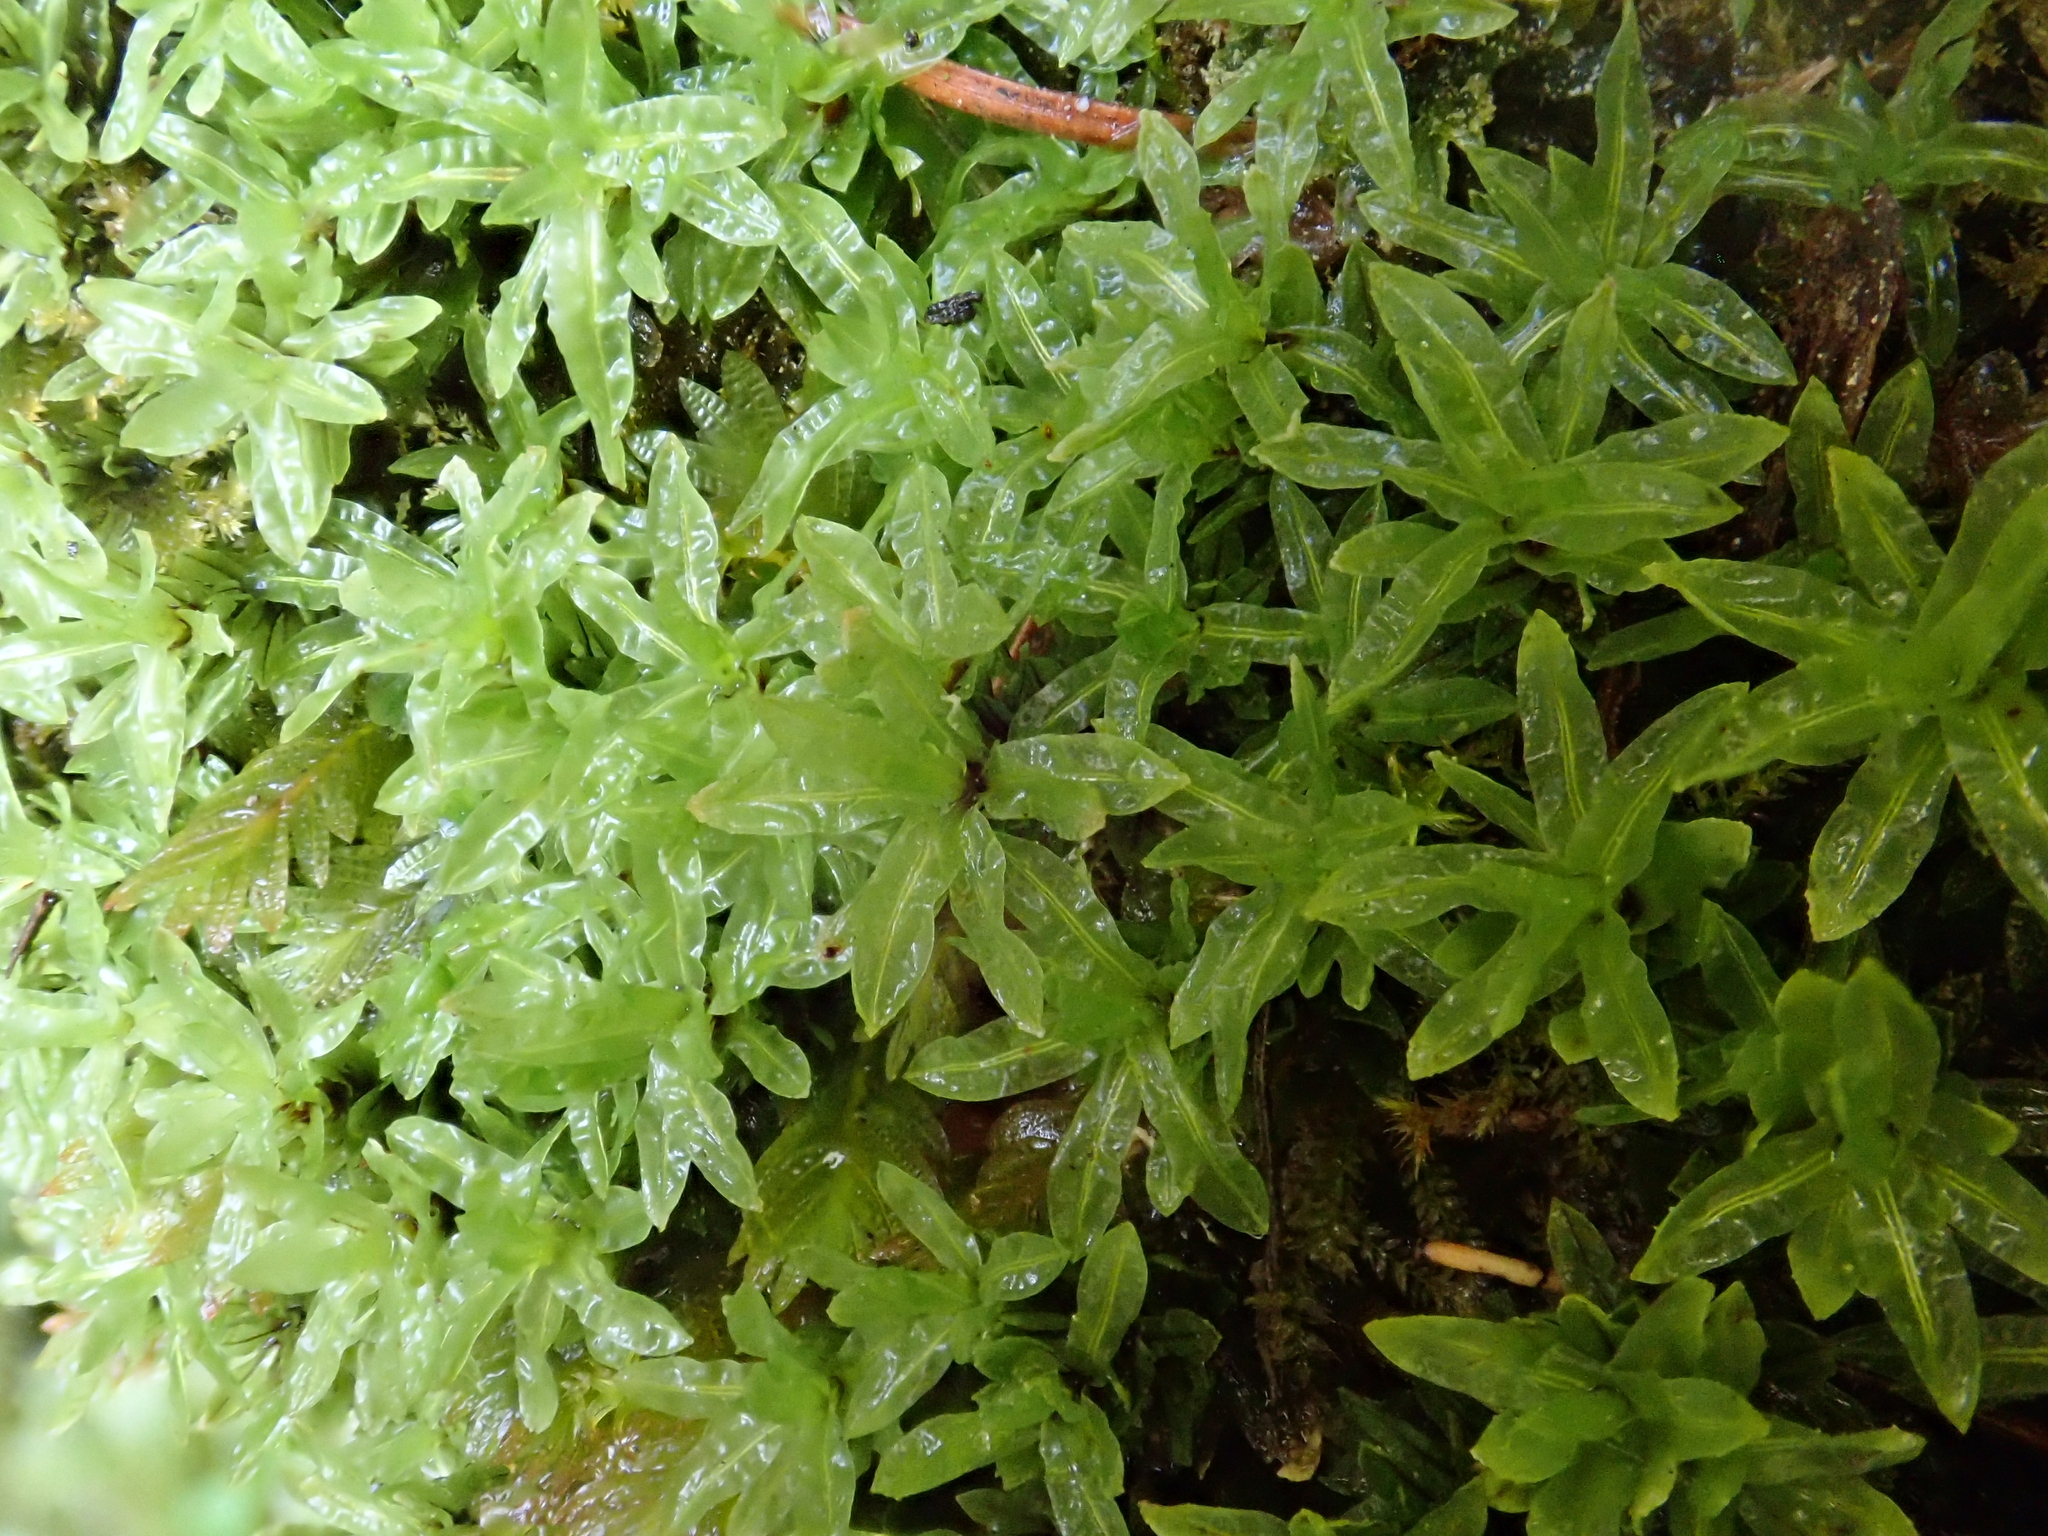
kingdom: Plantae
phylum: Bryophyta
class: Bryopsida
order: Encalyptales
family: Encalyptaceae
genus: Encalypta
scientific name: Encalypta streptocarpa
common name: Spiral extinguisher-moss
